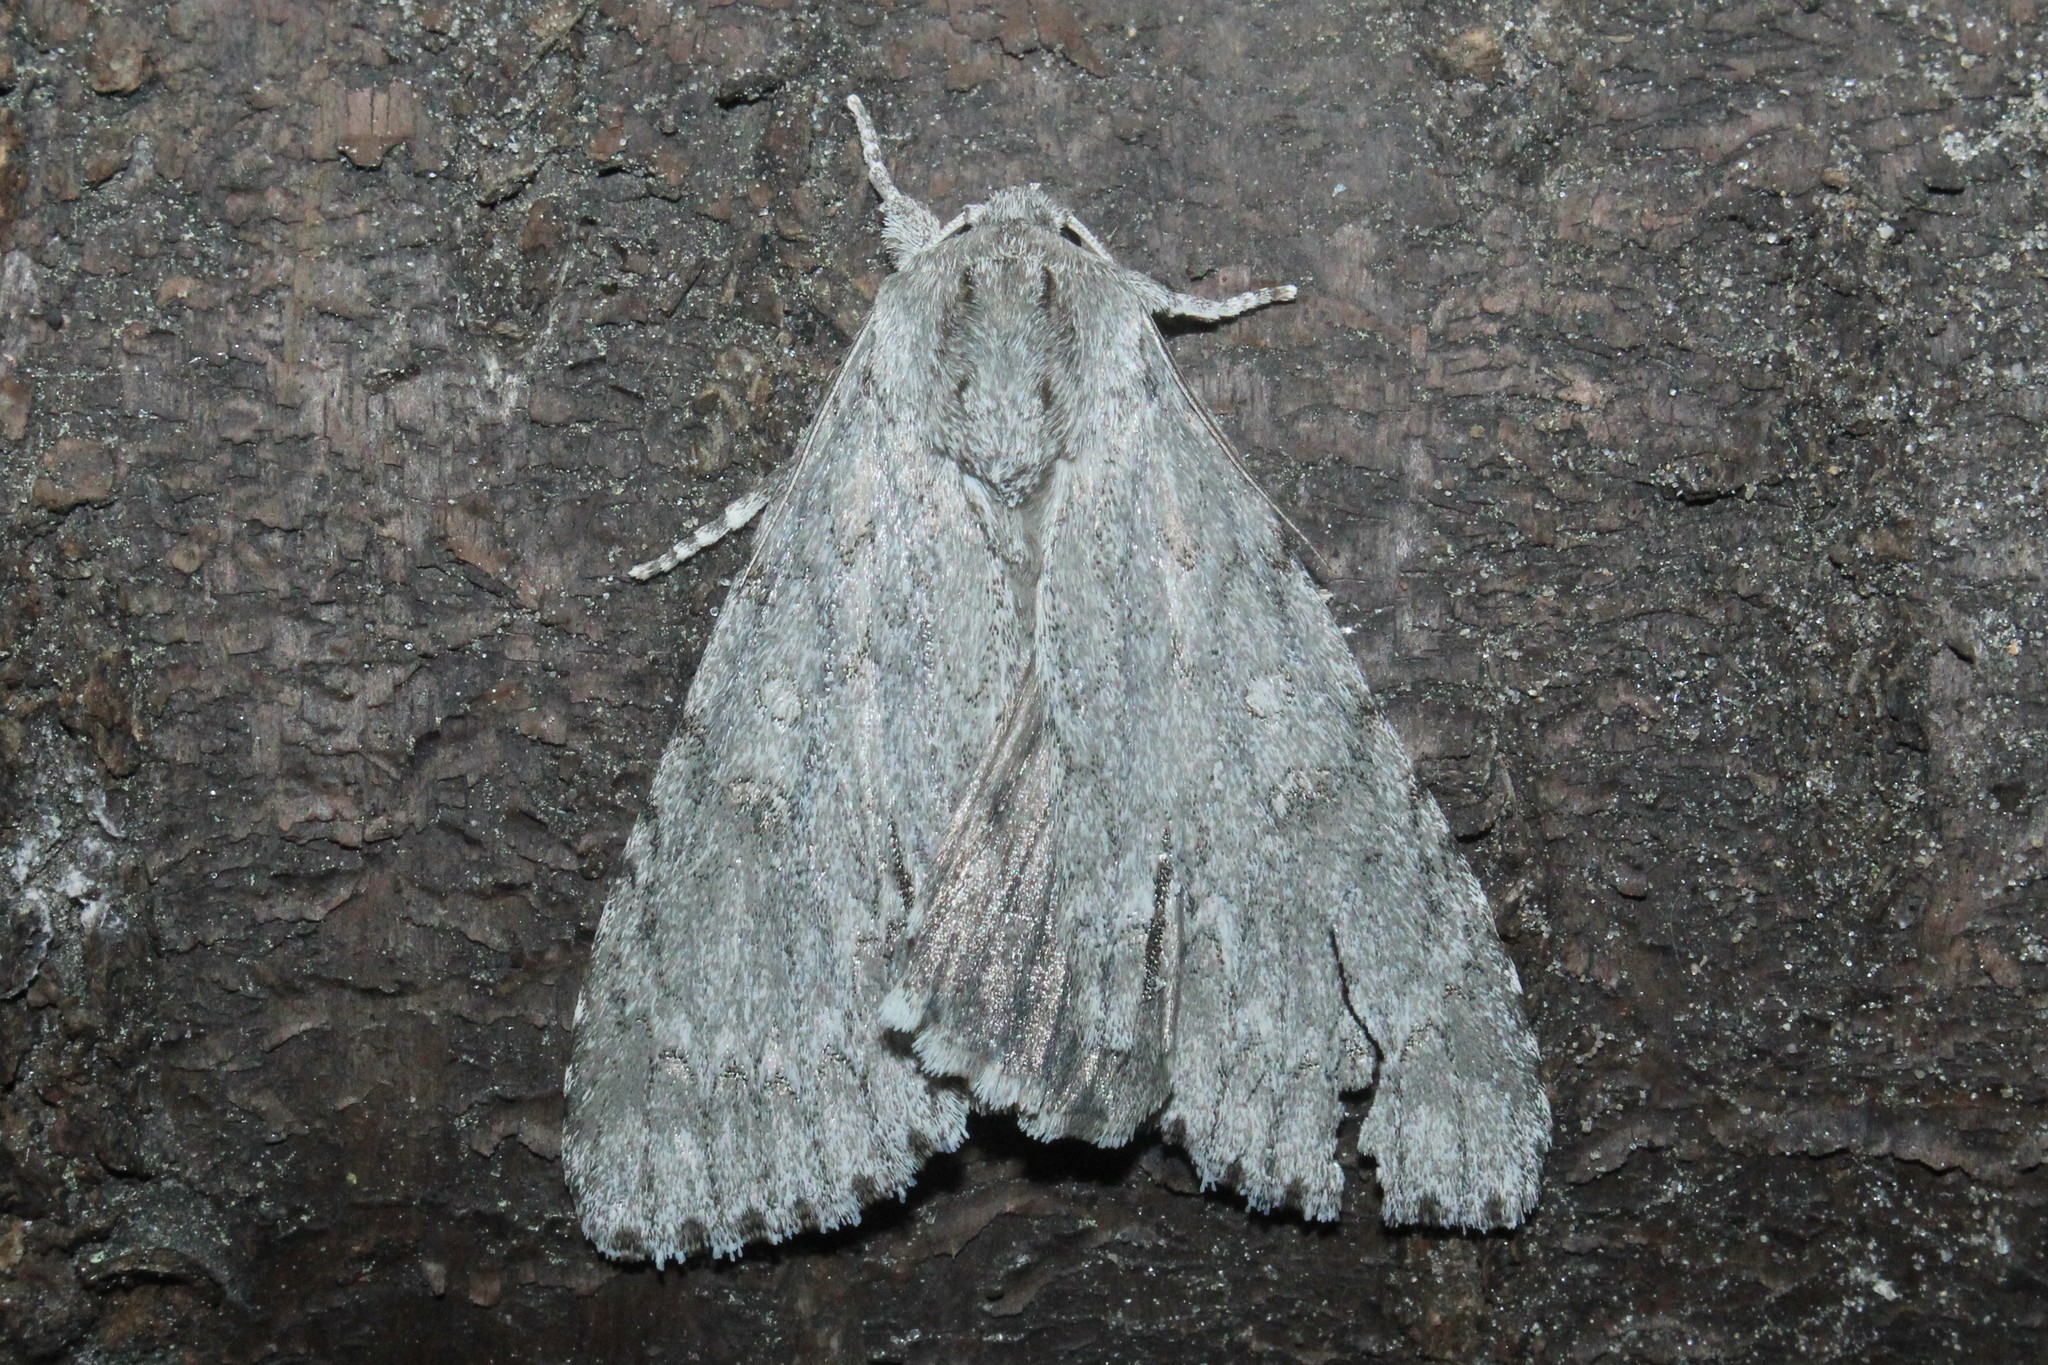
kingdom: Animalia
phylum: Arthropoda
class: Insecta
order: Lepidoptera
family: Noctuidae
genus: Acronicta
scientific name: Acronicta americana
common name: American dagger
